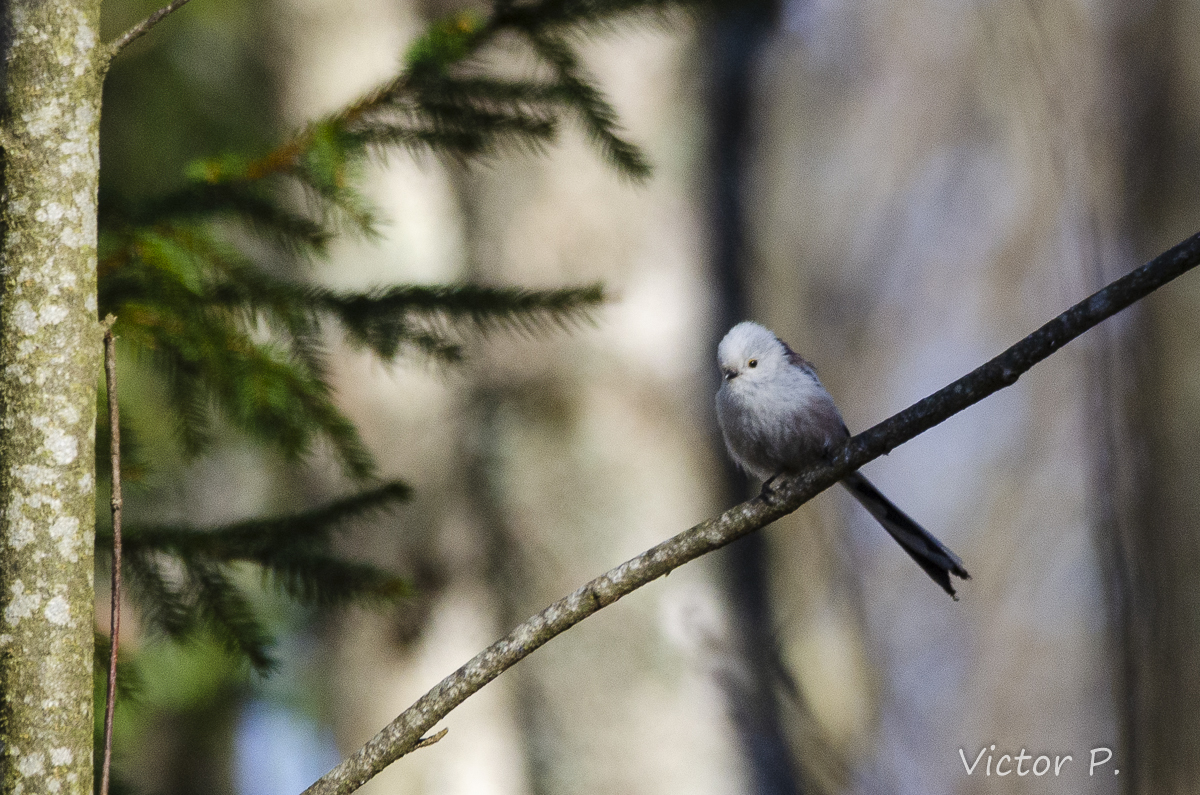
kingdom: Animalia
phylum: Chordata
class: Aves
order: Passeriformes
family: Aegithalidae
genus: Aegithalos
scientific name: Aegithalos caudatus
